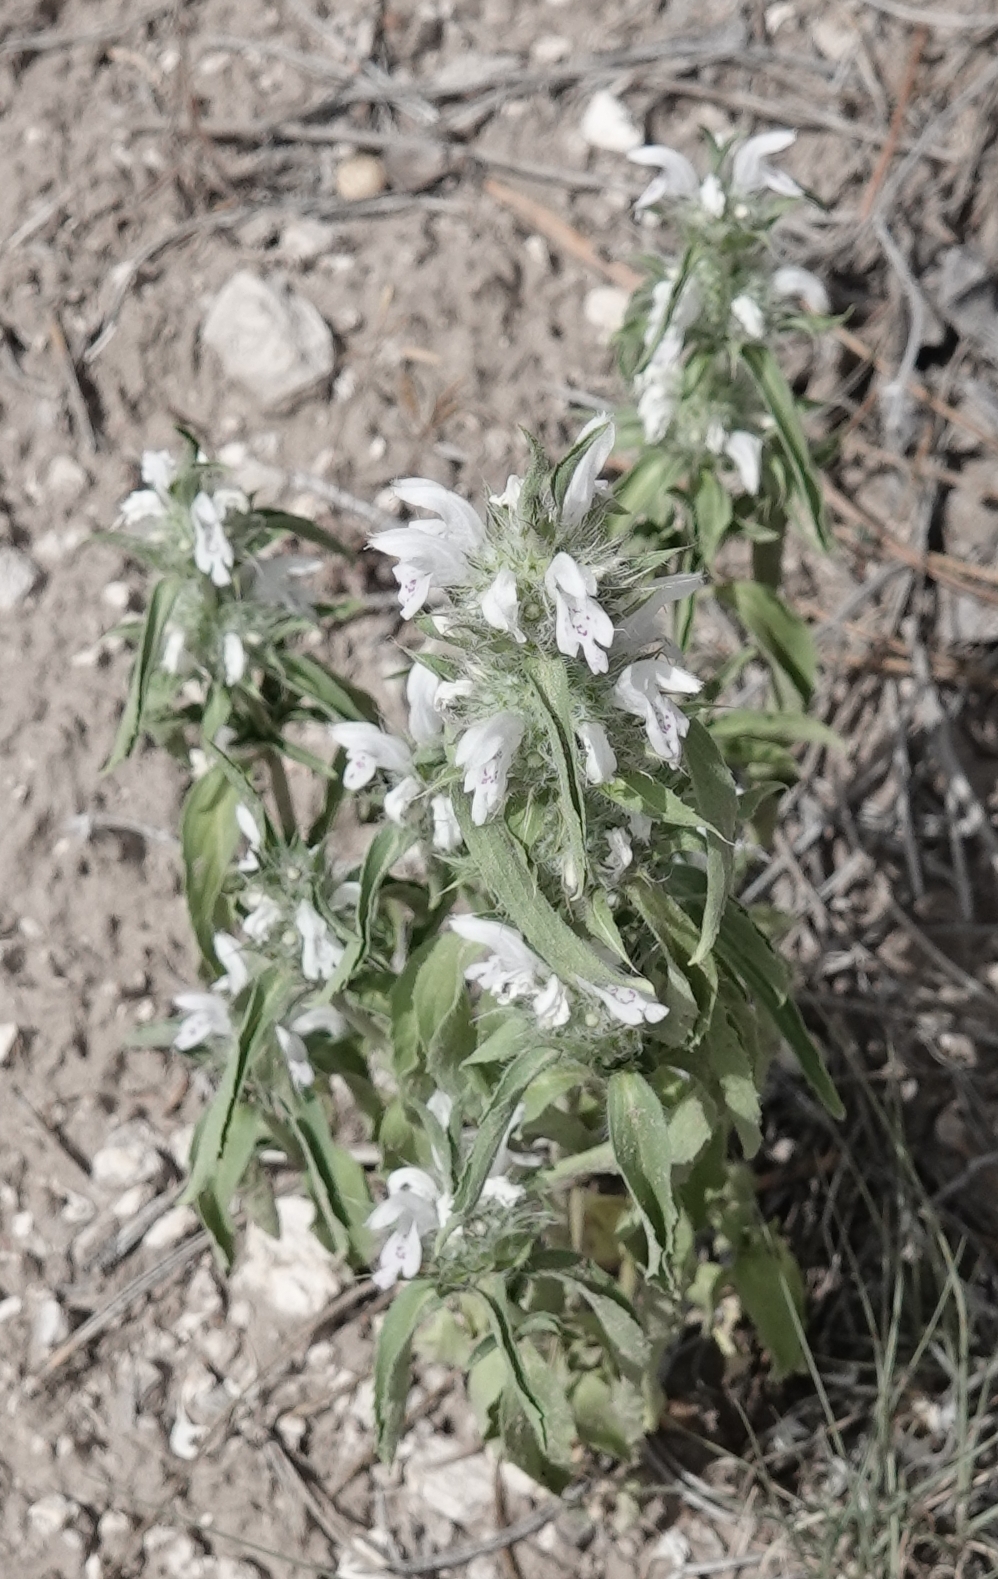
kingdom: Plantae
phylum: Tracheophyta
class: Magnoliopsida
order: Lamiales
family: Lamiaceae
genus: Monarda
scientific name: Monarda pectinata
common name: Plains beebalm
